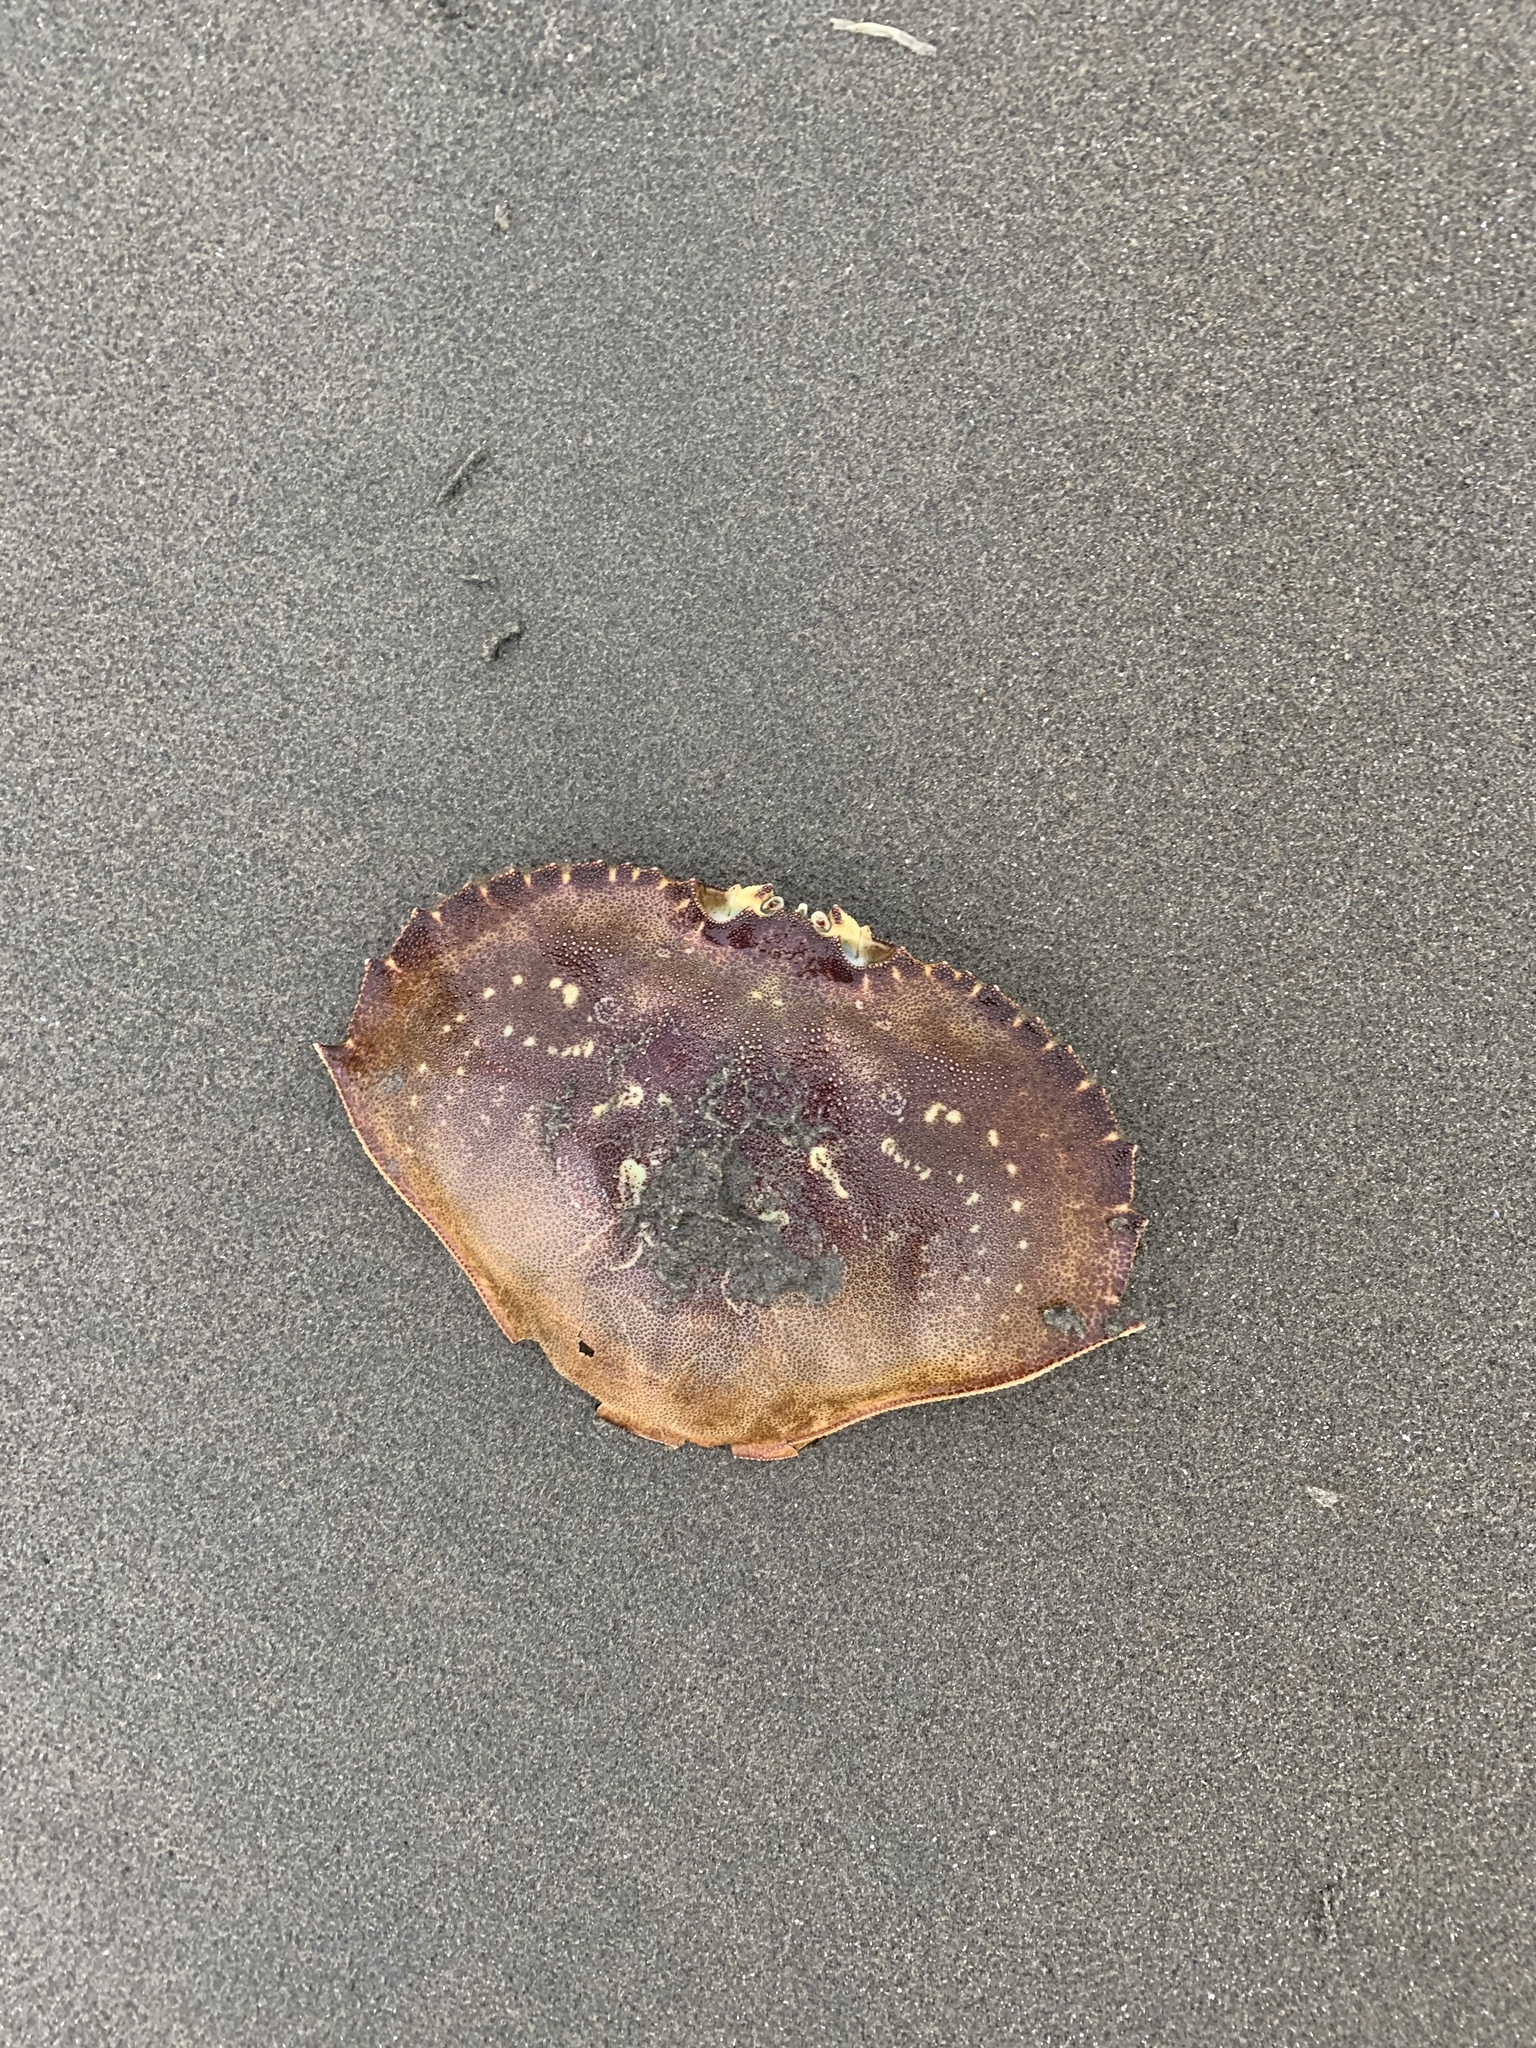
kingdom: Animalia
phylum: Arthropoda
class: Malacostraca
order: Decapoda
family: Cancridae
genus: Metacarcinus
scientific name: Metacarcinus magister
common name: Californian crab
